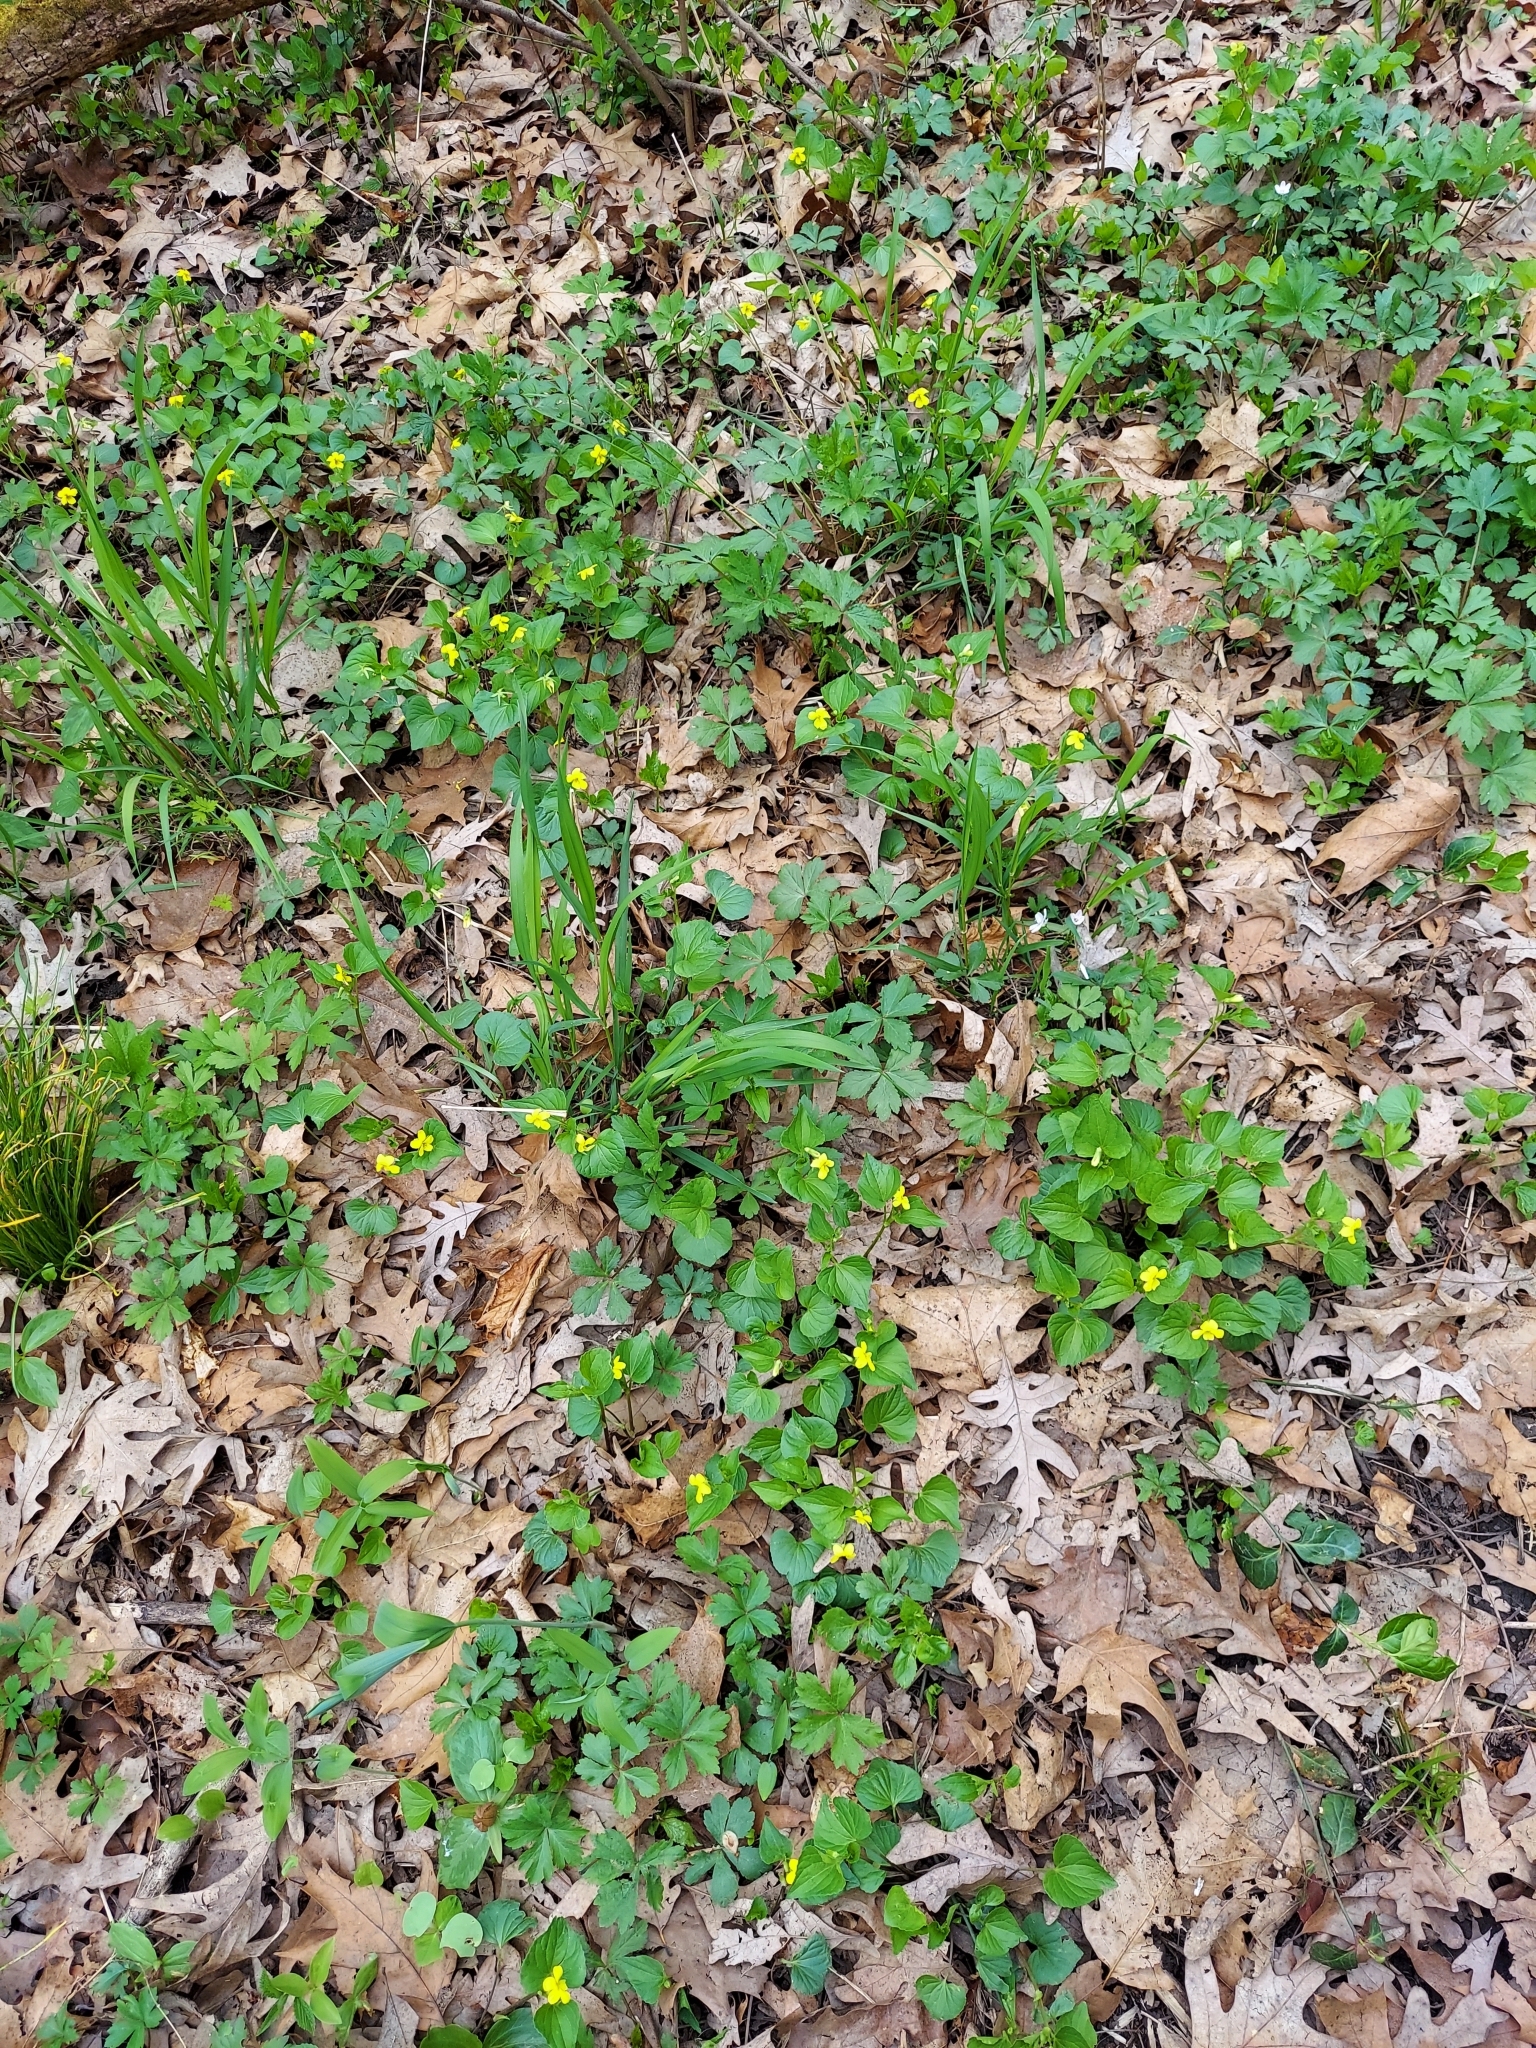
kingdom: Plantae
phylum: Tracheophyta
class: Magnoliopsida
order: Malpighiales
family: Violaceae
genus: Viola
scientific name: Viola eriocarpa
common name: Smooth yellow violet
